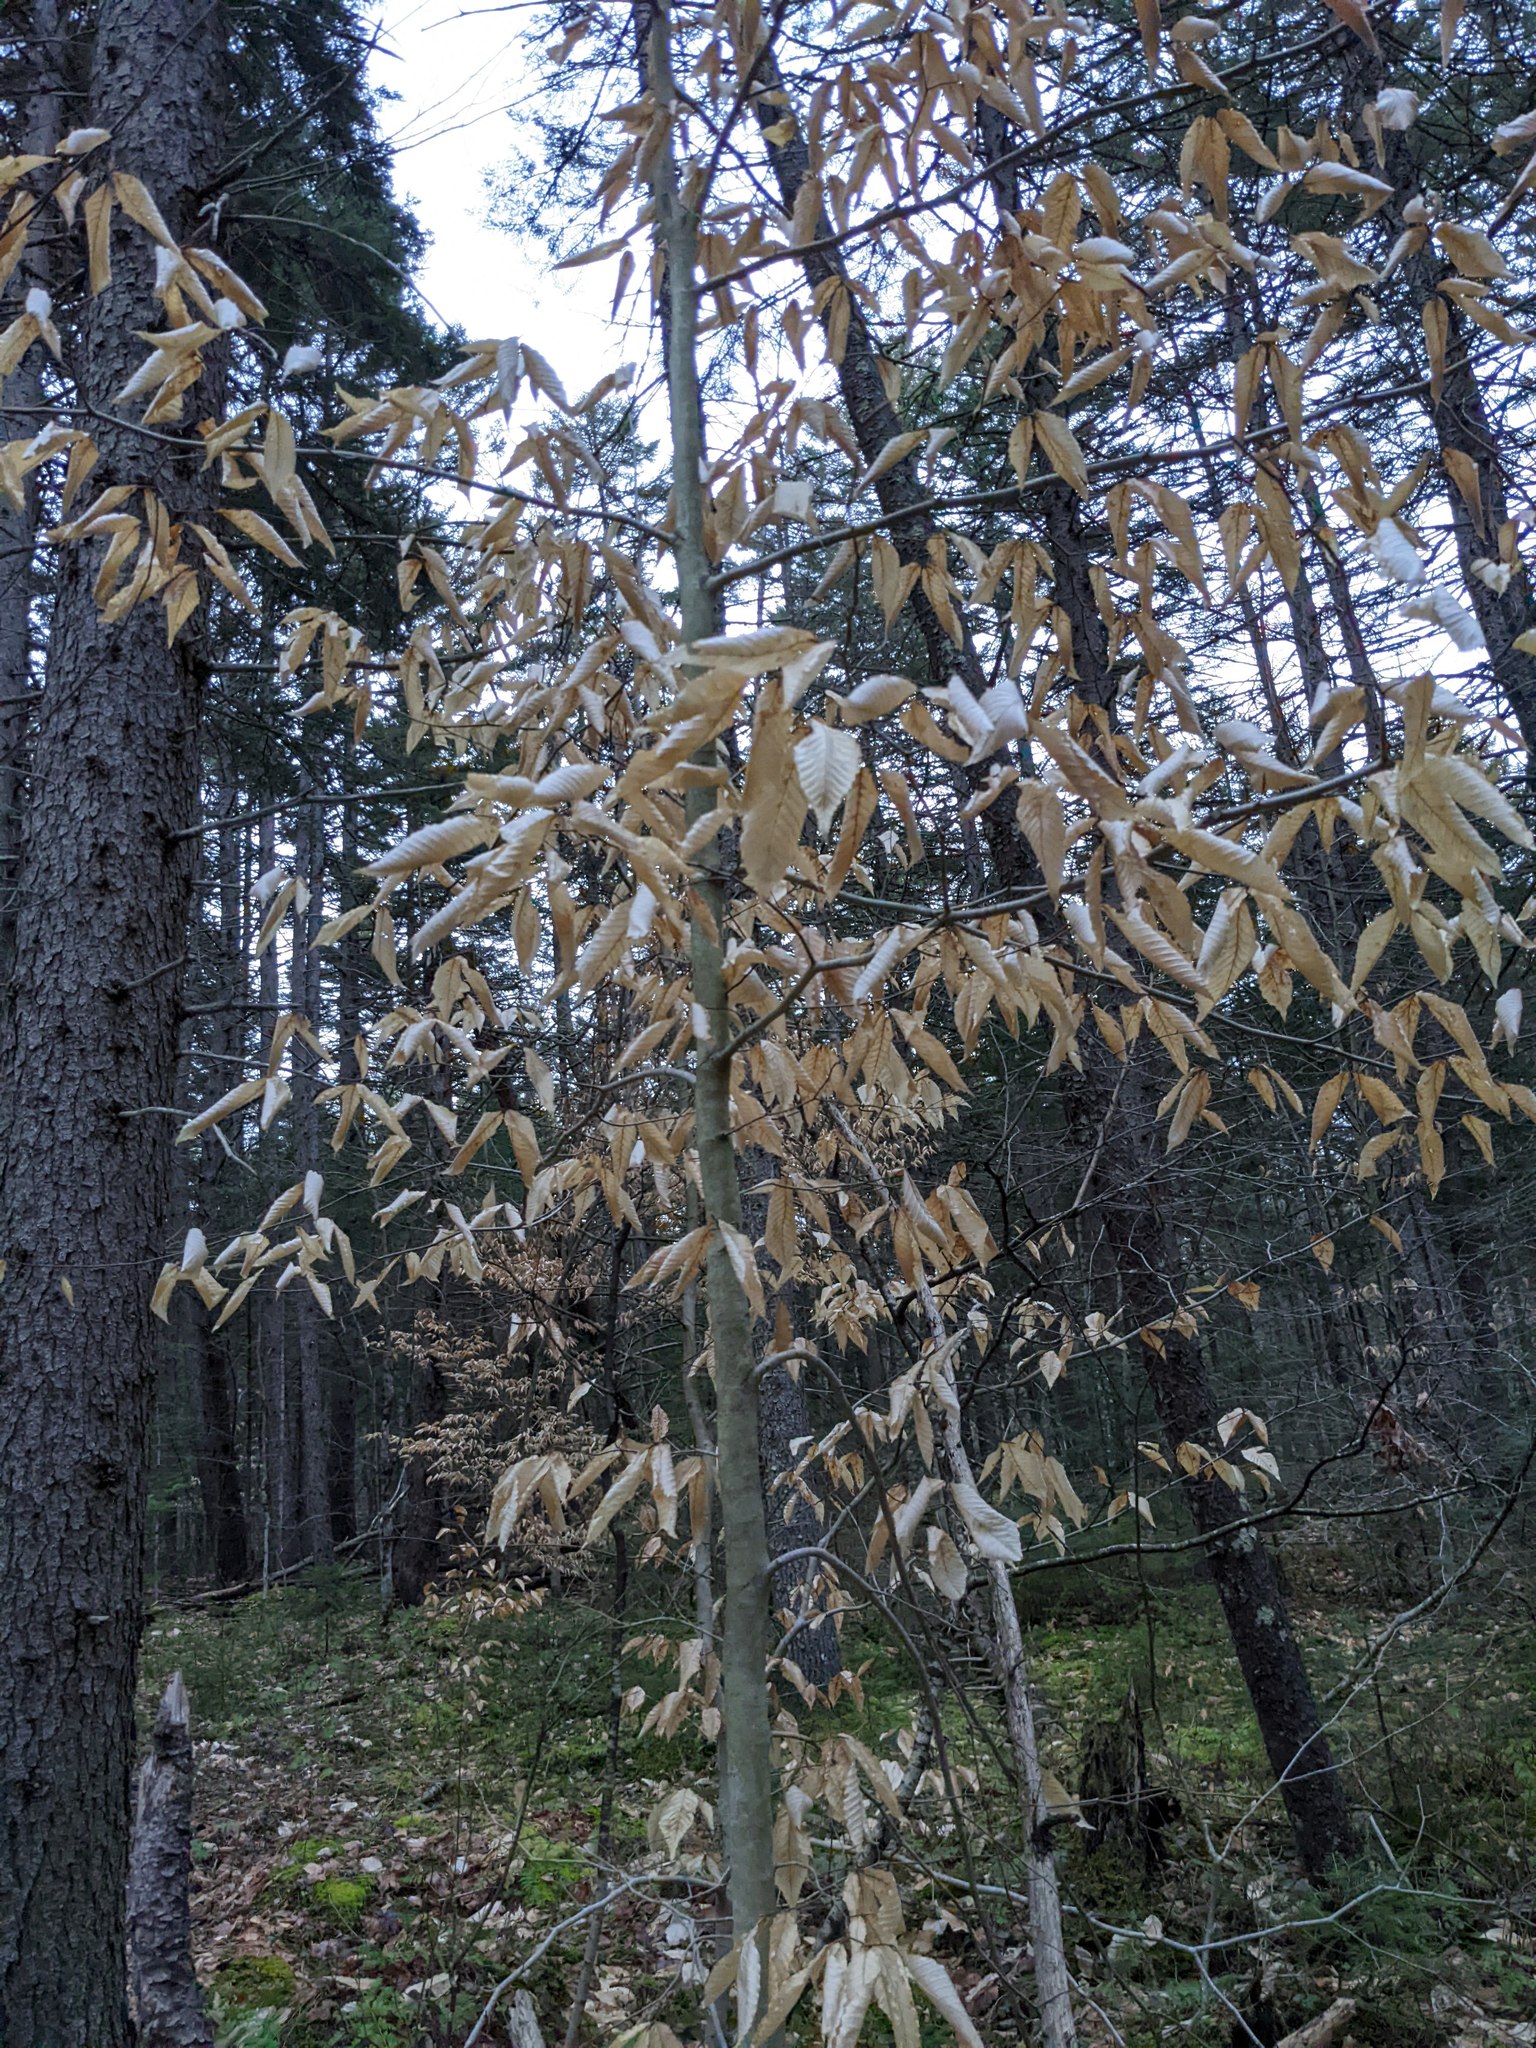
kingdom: Plantae
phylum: Tracheophyta
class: Magnoliopsida
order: Fagales
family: Fagaceae
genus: Fagus
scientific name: Fagus grandifolia
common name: American beech
